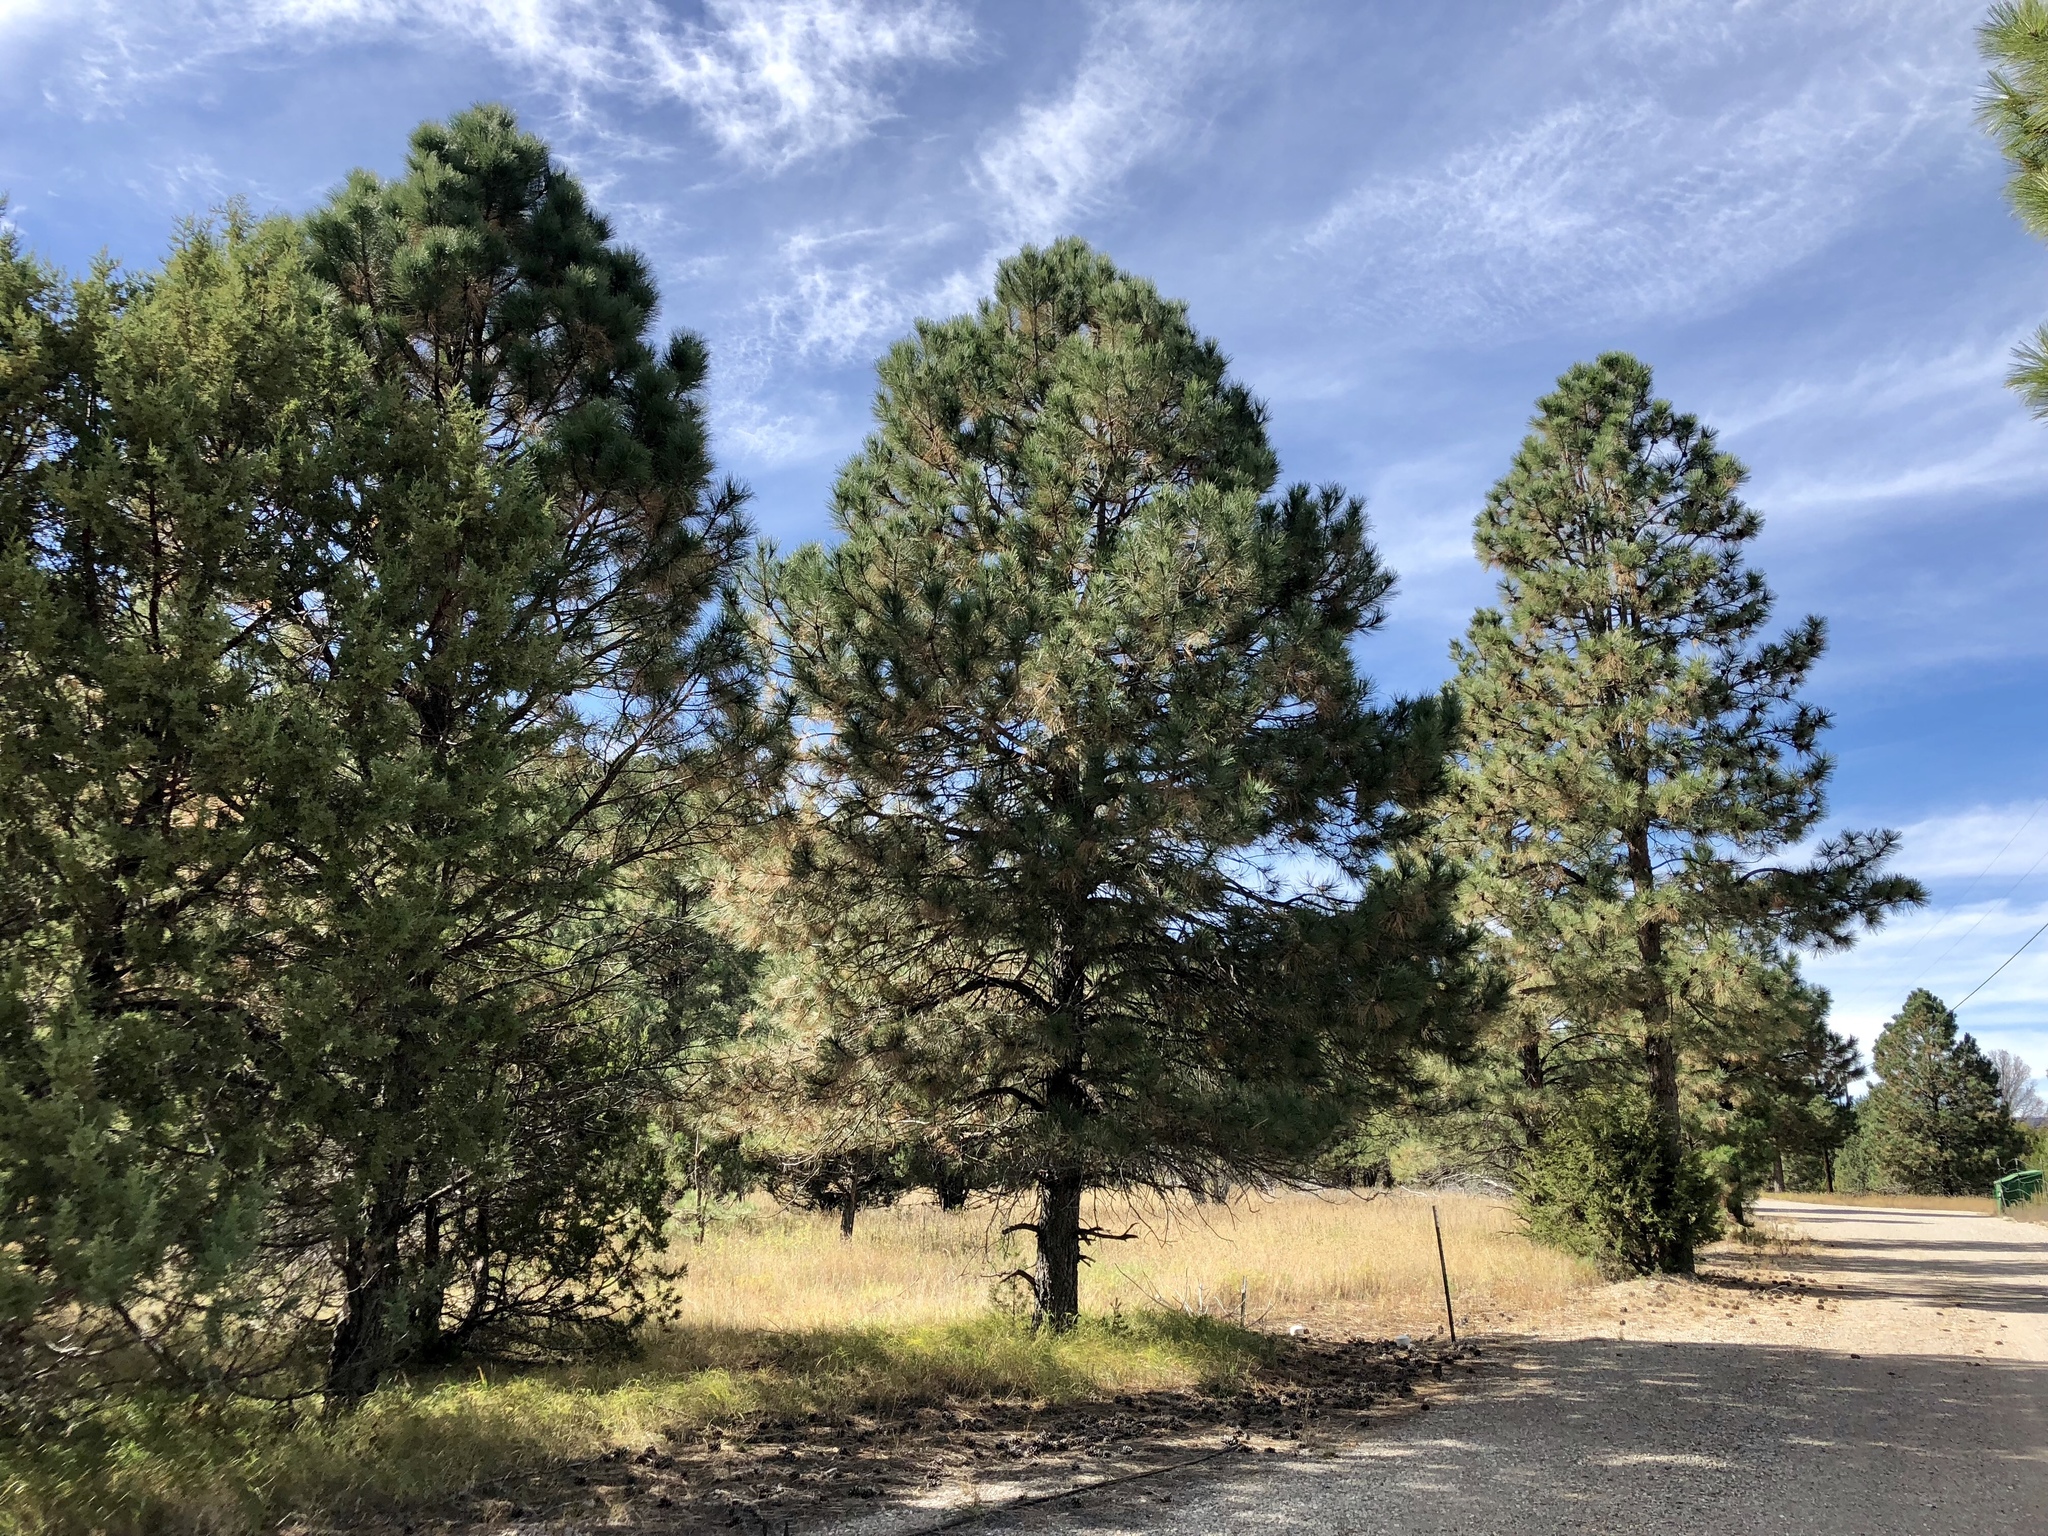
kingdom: Plantae
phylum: Tracheophyta
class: Pinopsida
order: Pinales
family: Pinaceae
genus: Pinus
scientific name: Pinus ponderosa
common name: Western yellow-pine
